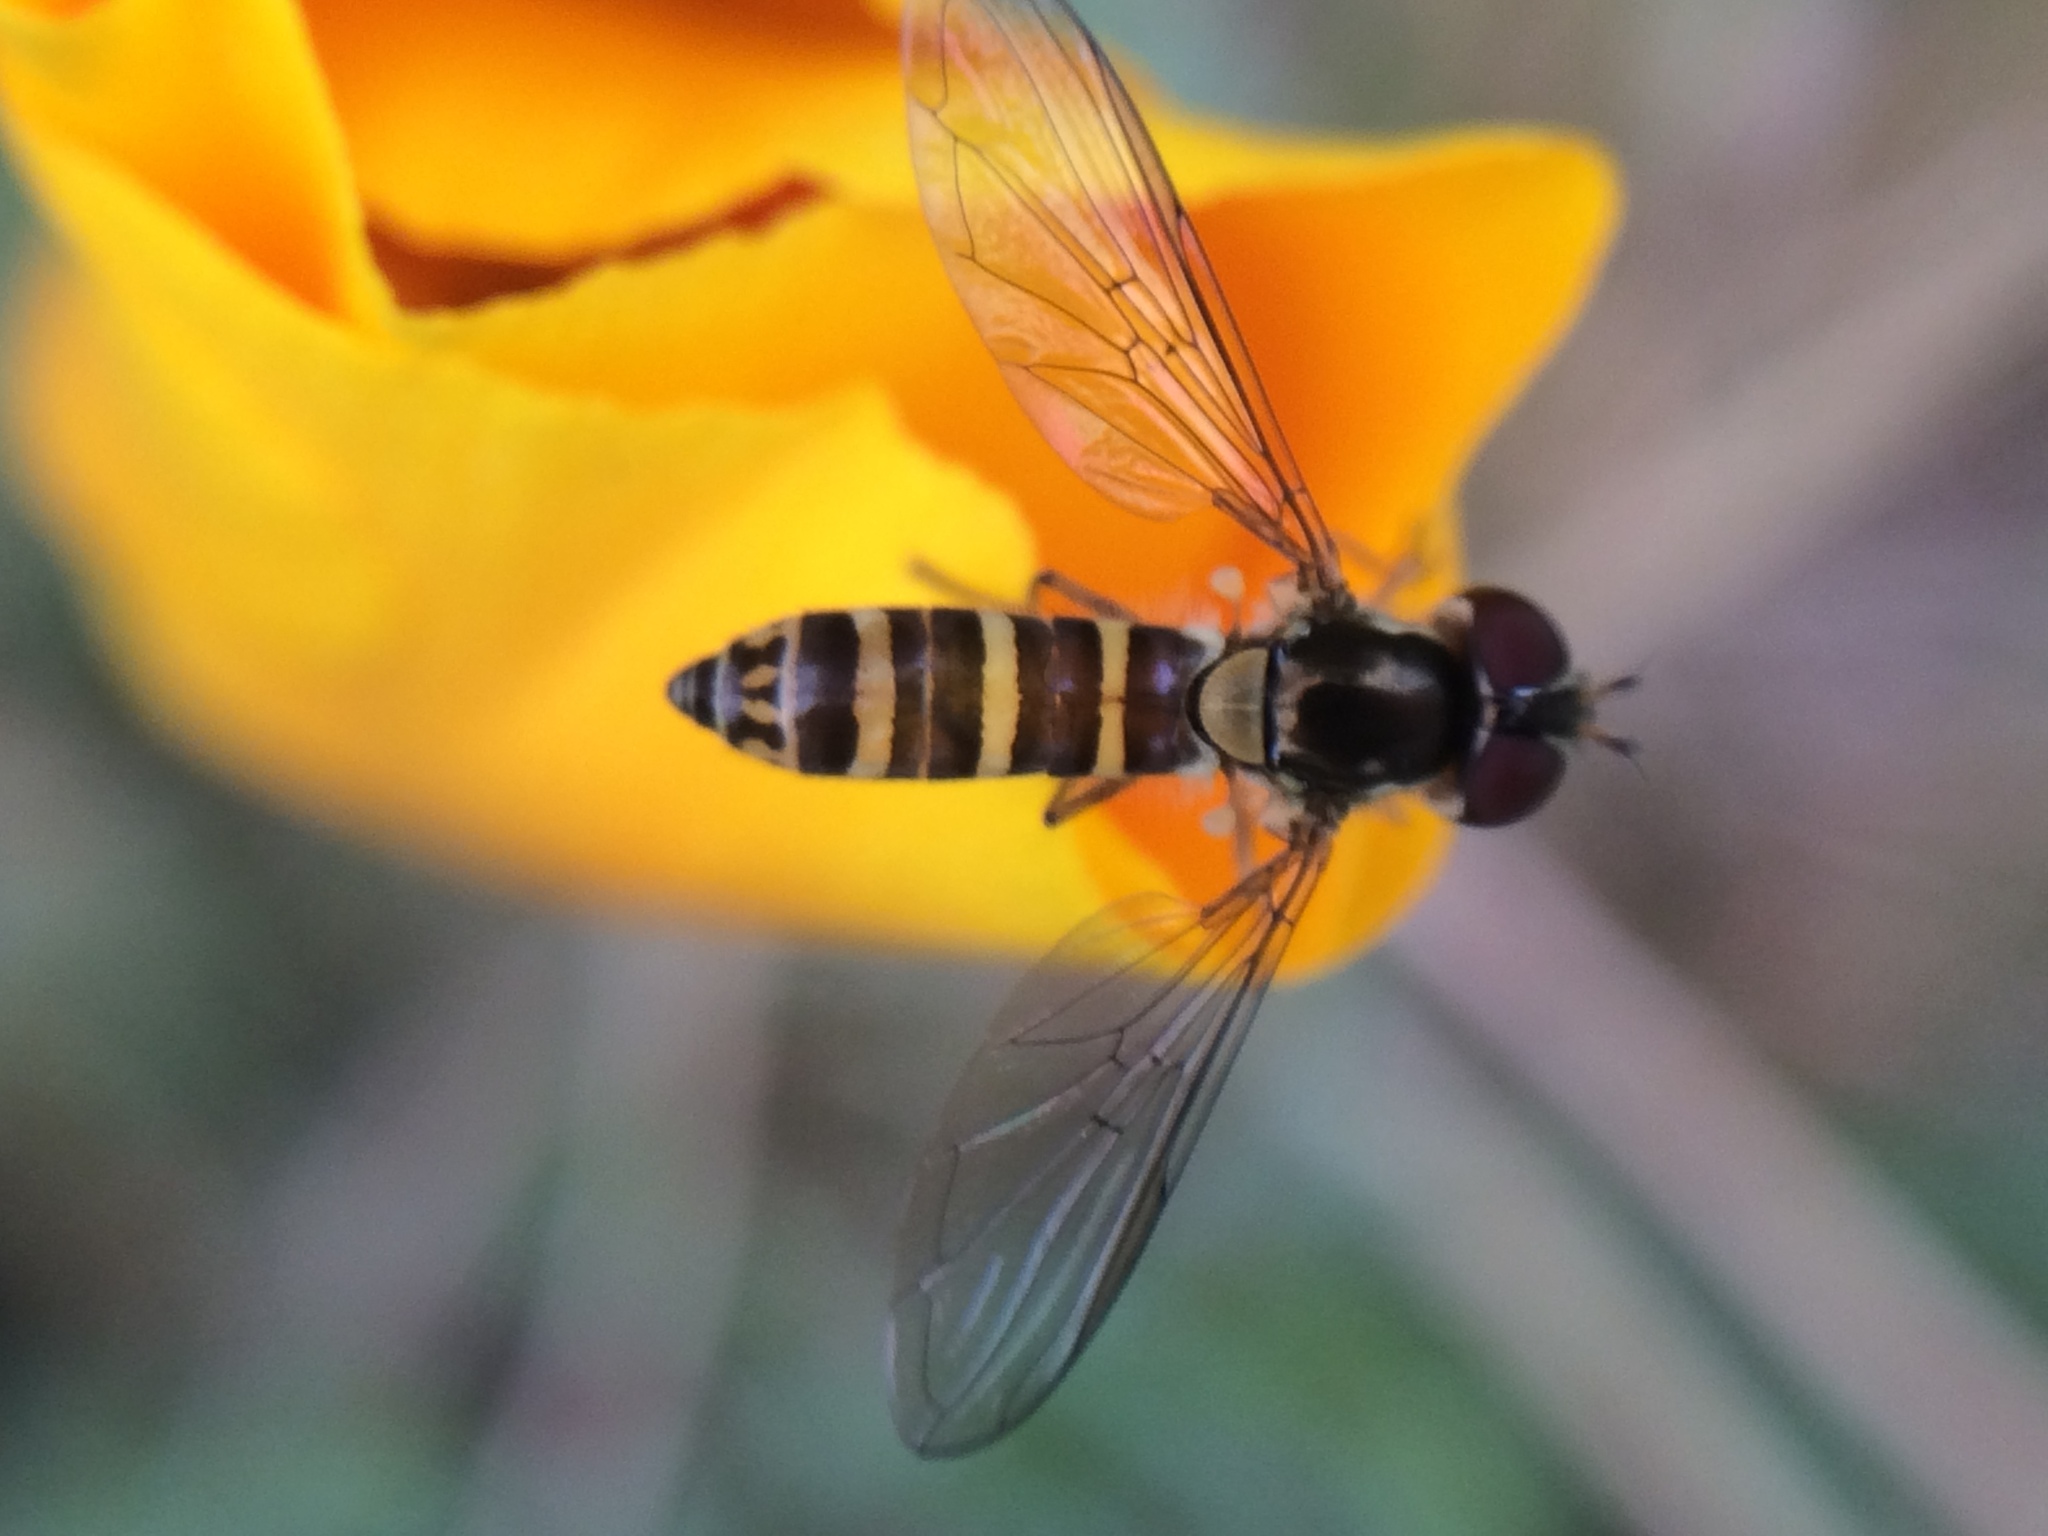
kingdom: Animalia
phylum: Arthropoda
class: Insecta
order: Diptera
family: Syrphidae
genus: Fazia
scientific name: Fazia micrura
